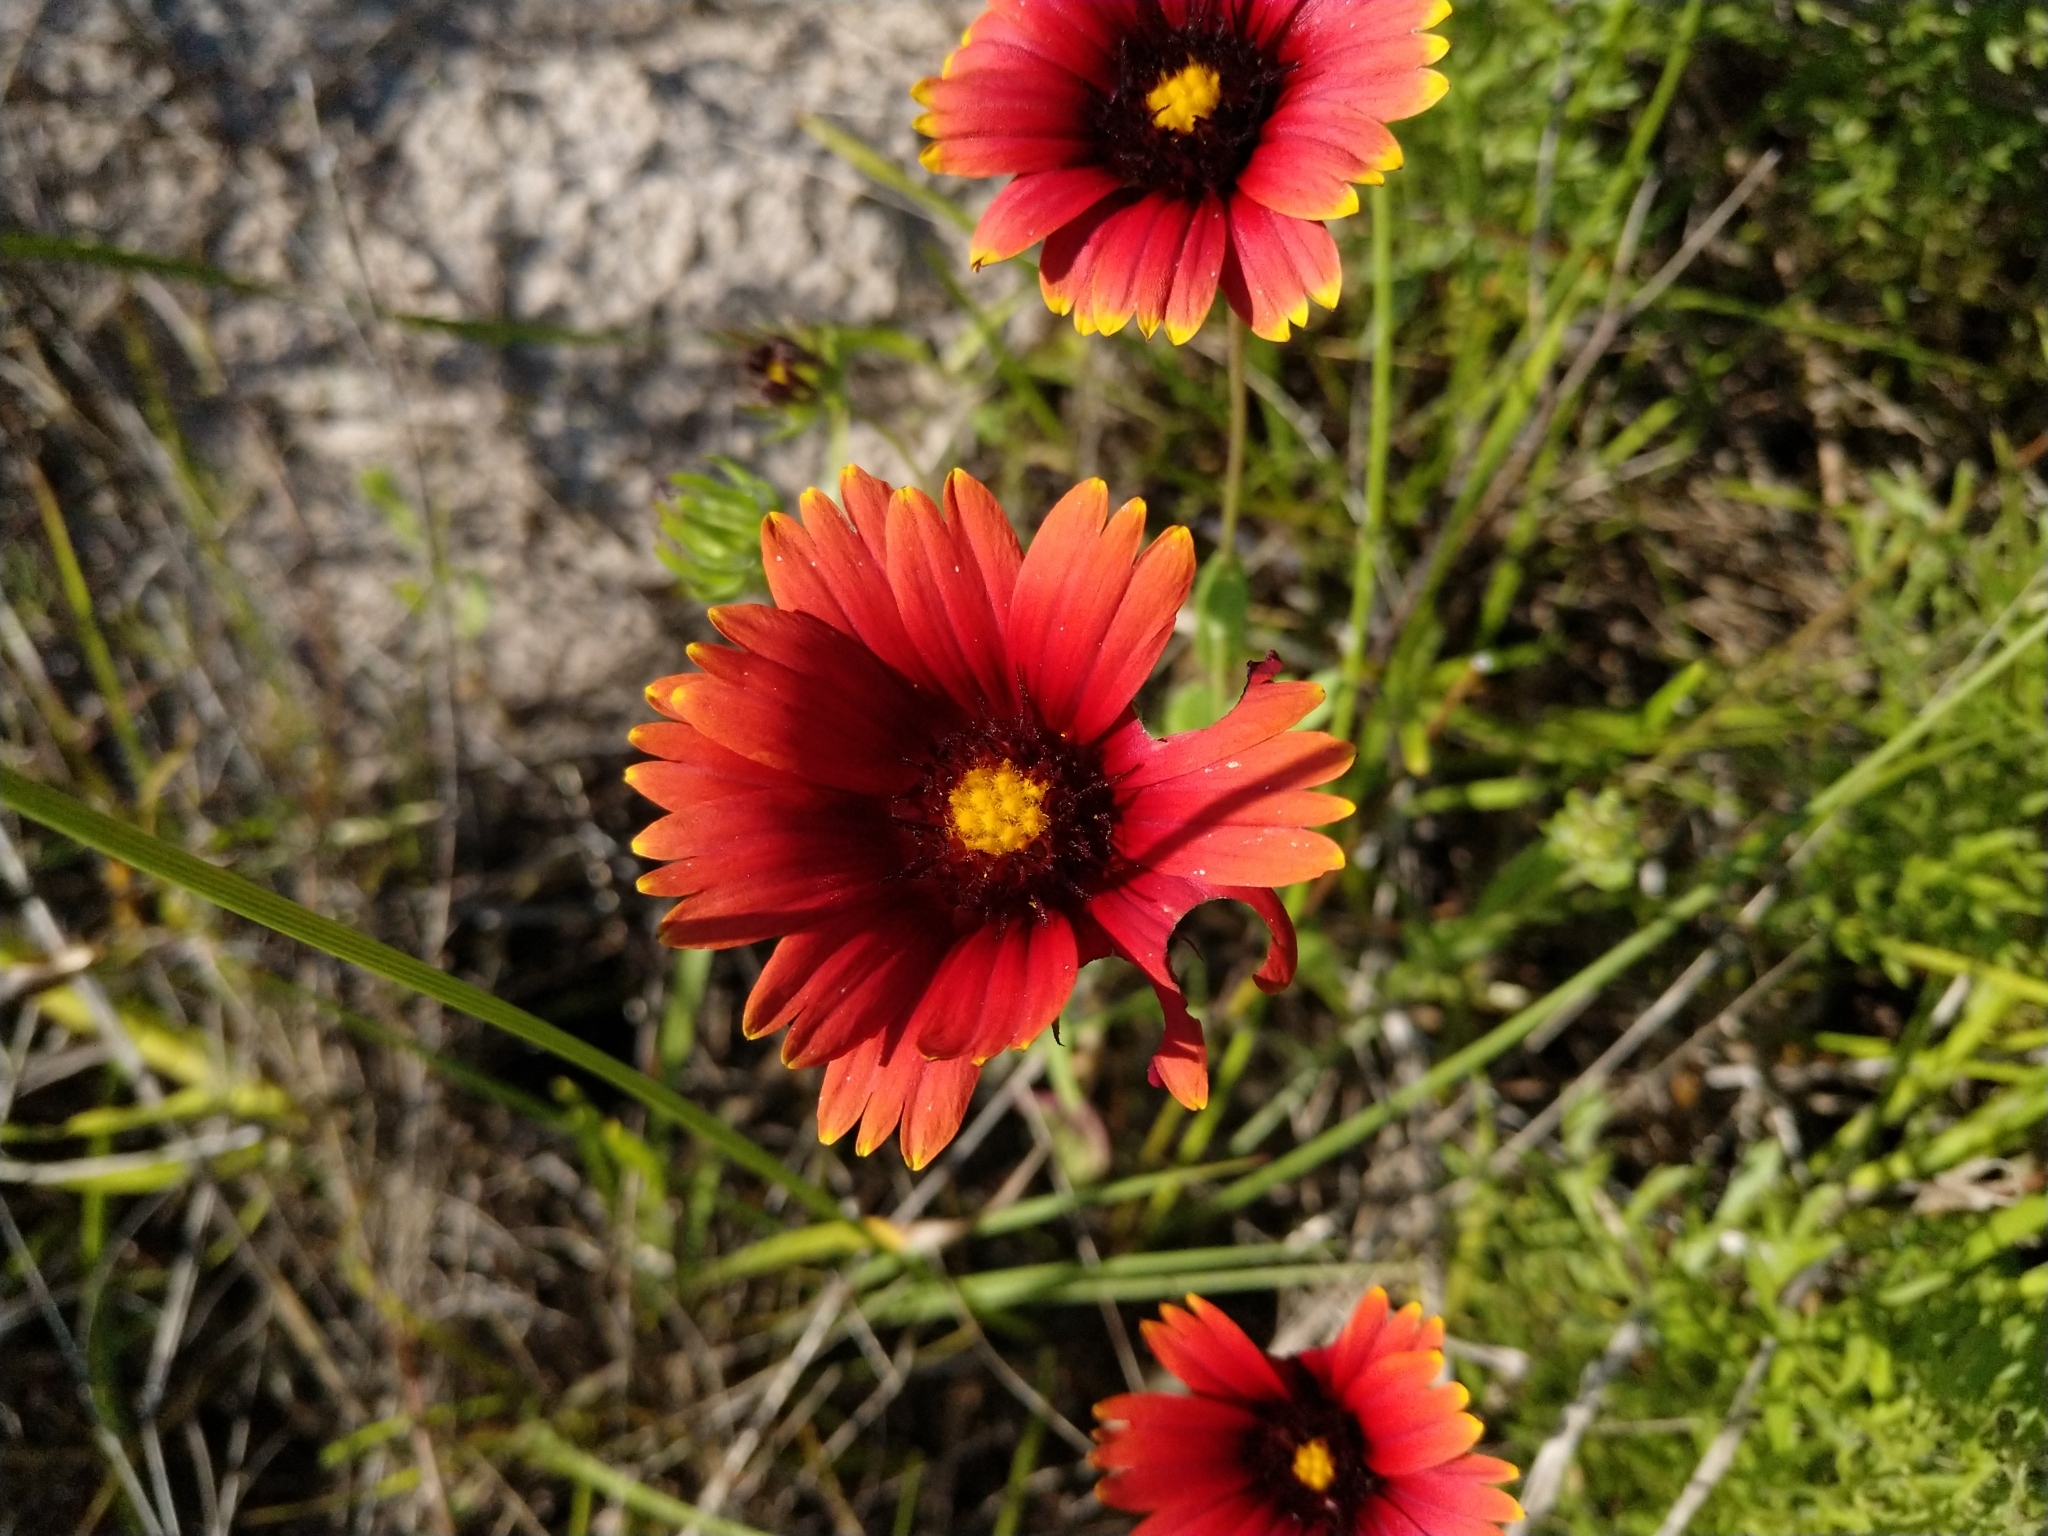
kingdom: Plantae
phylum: Tracheophyta
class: Magnoliopsida
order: Asterales
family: Asteraceae
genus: Gaillardia
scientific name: Gaillardia amblyodon
